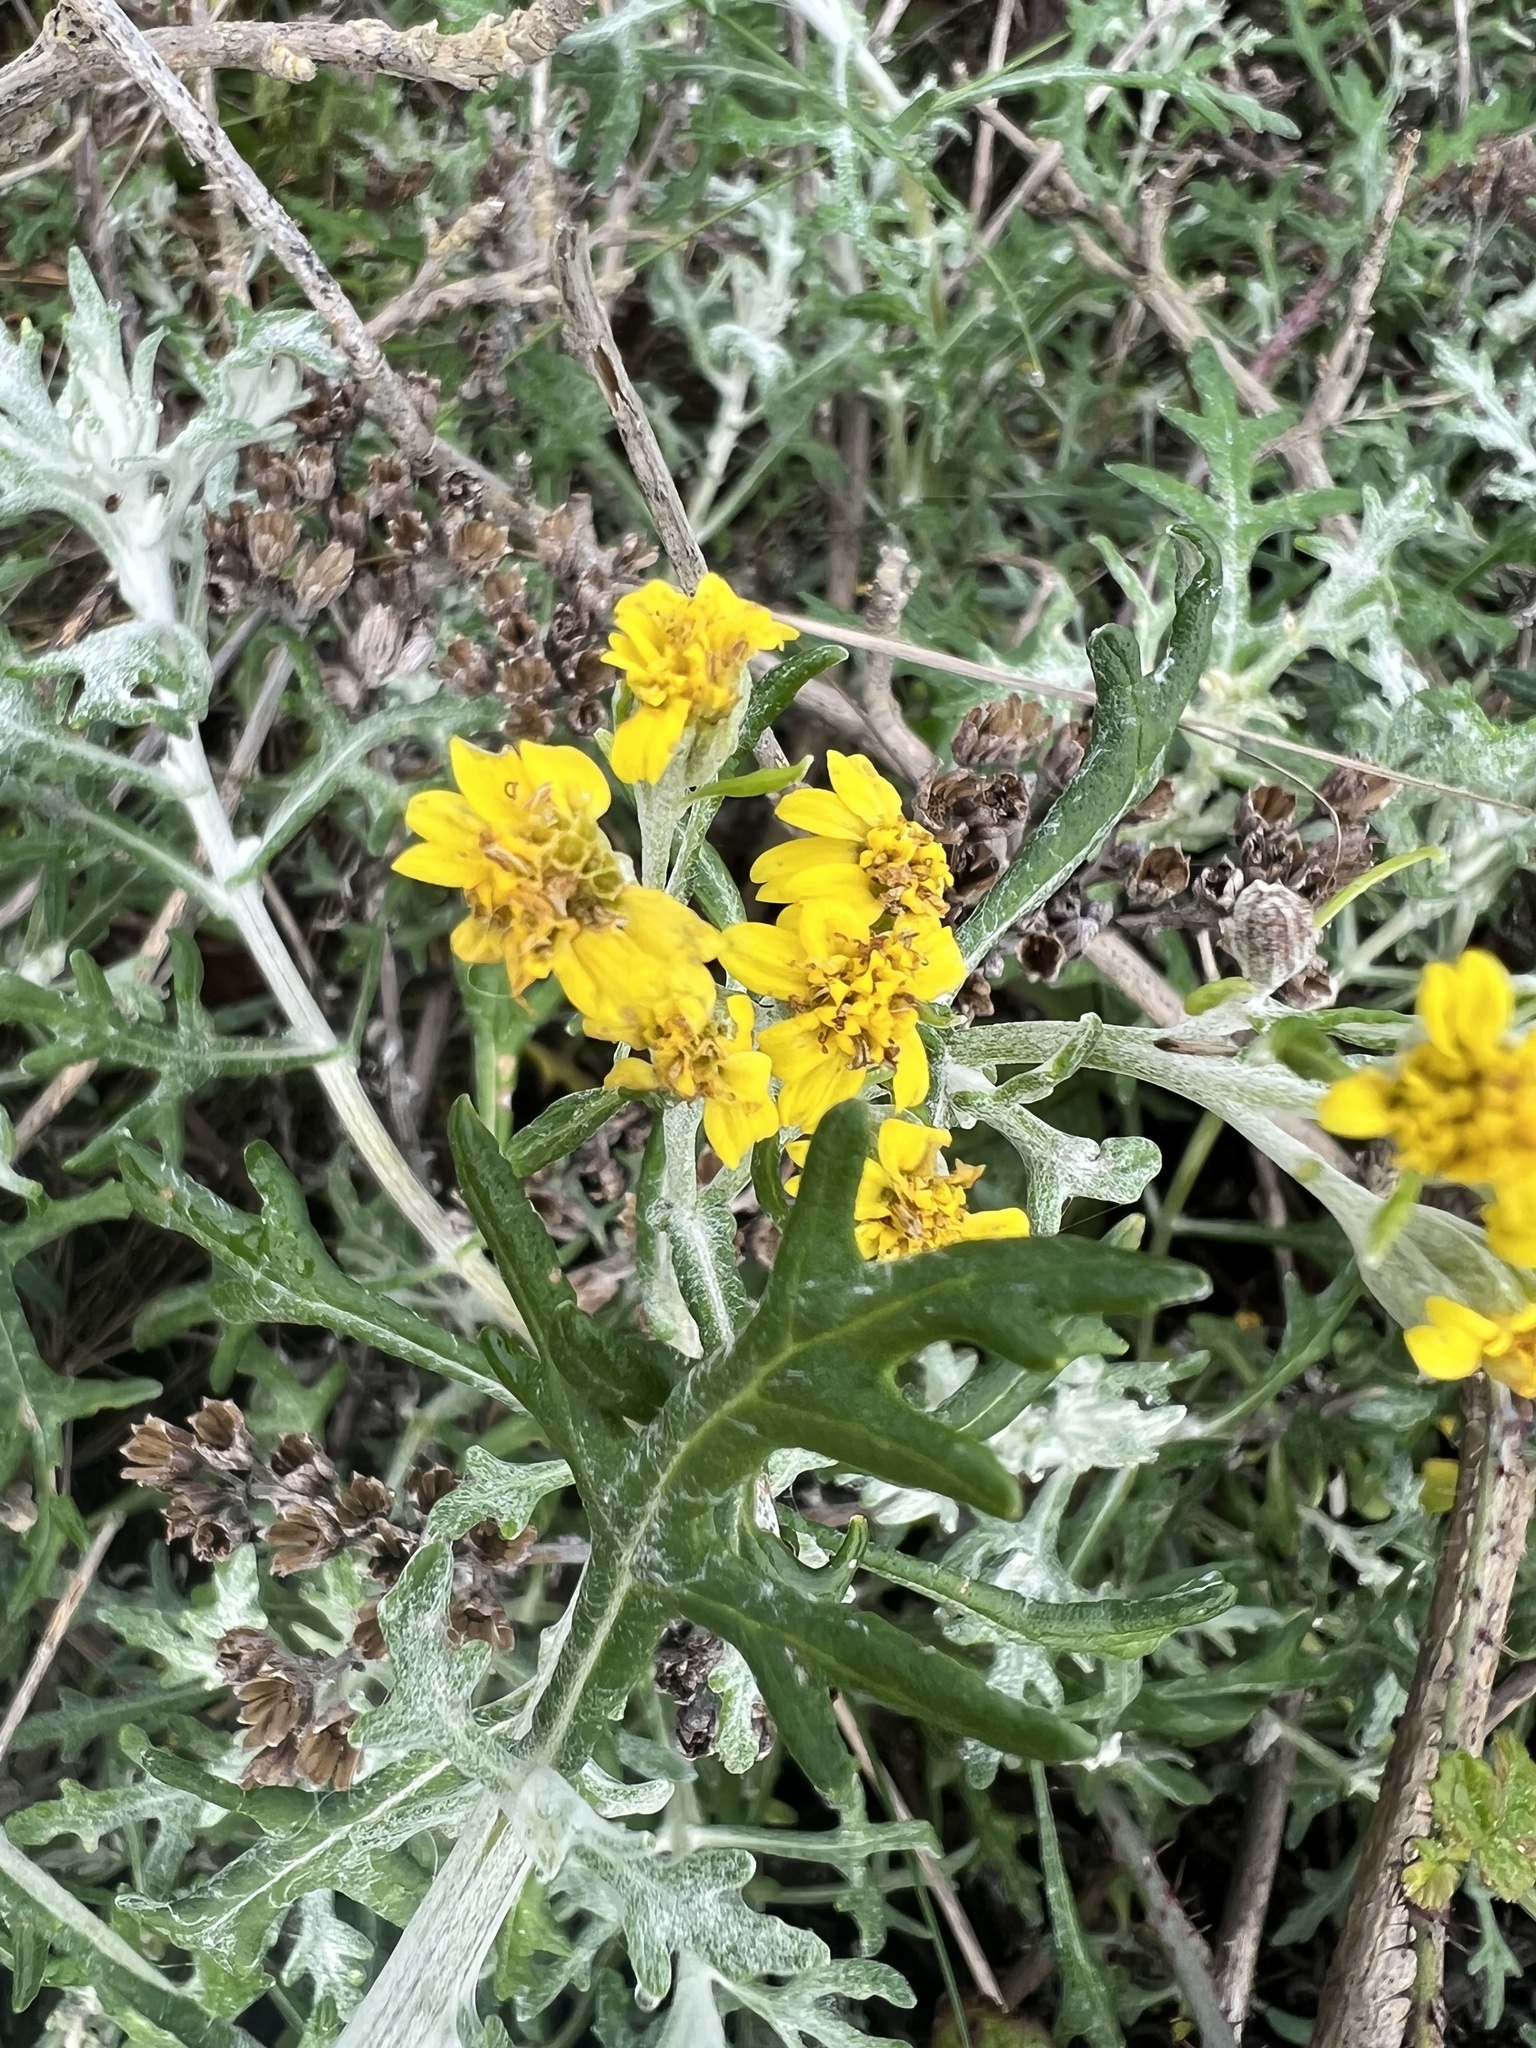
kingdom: Plantae
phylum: Tracheophyta
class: Magnoliopsida
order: Asterales
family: Asteraceae
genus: Eriophyllum
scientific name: Eriophyllum staechadifolium
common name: Lizardtail
